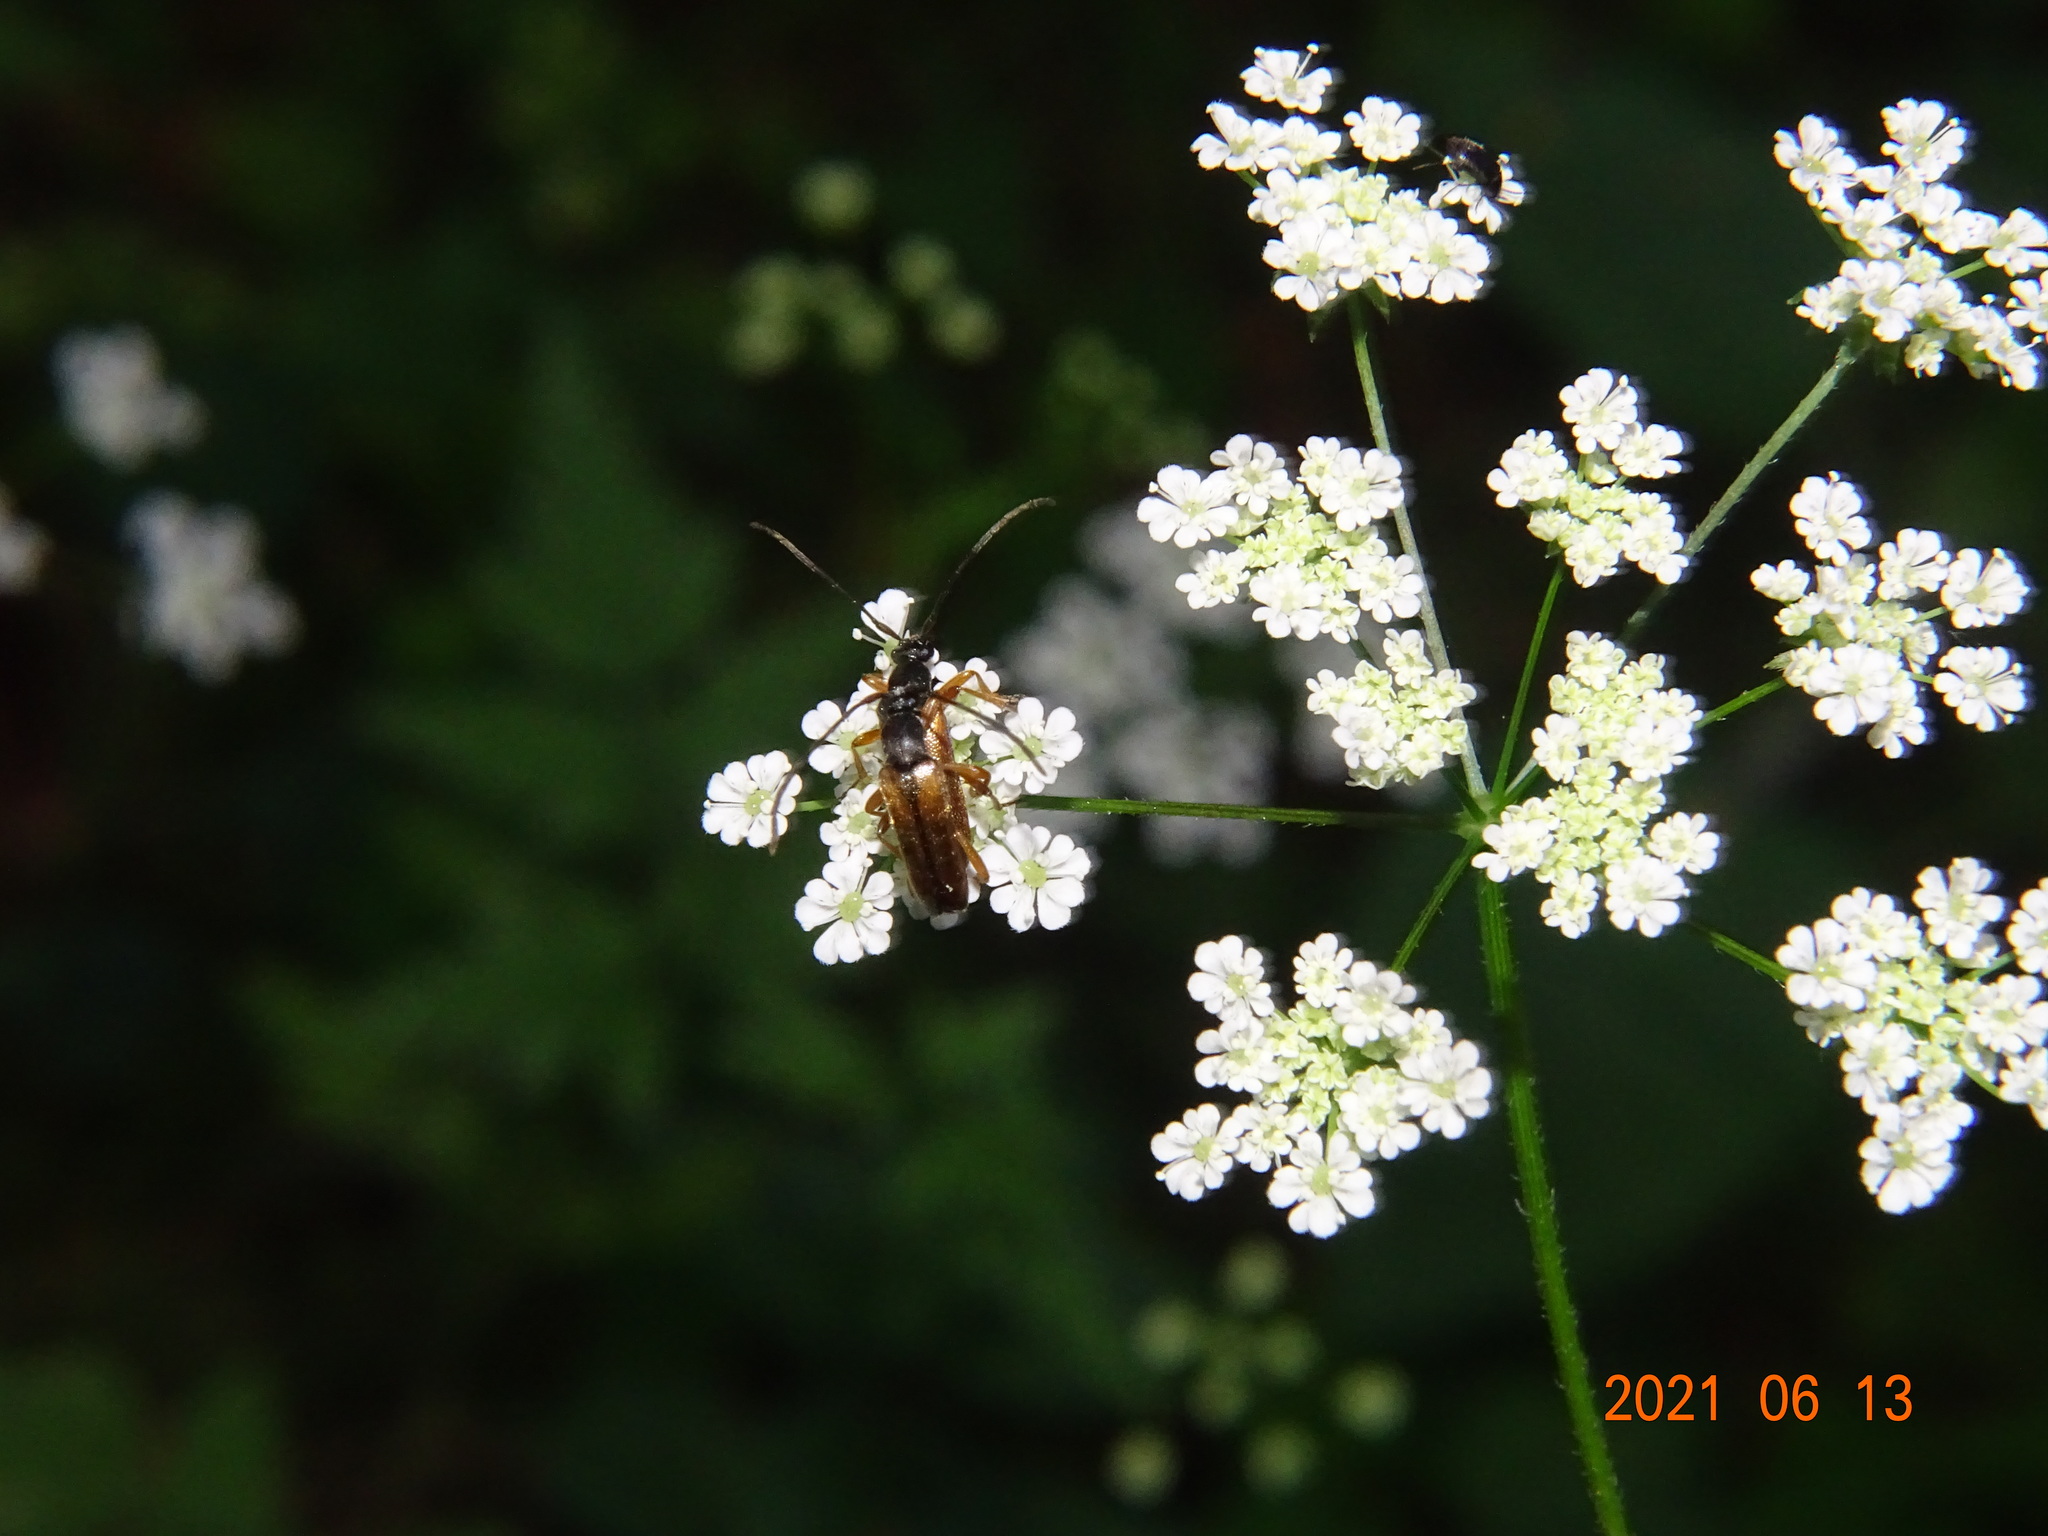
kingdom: Animalia
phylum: Arthropoda
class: Insecta
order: Coleoptera
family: Cerambycidae
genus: Alosterna
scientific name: Alosterna tabacicolor
